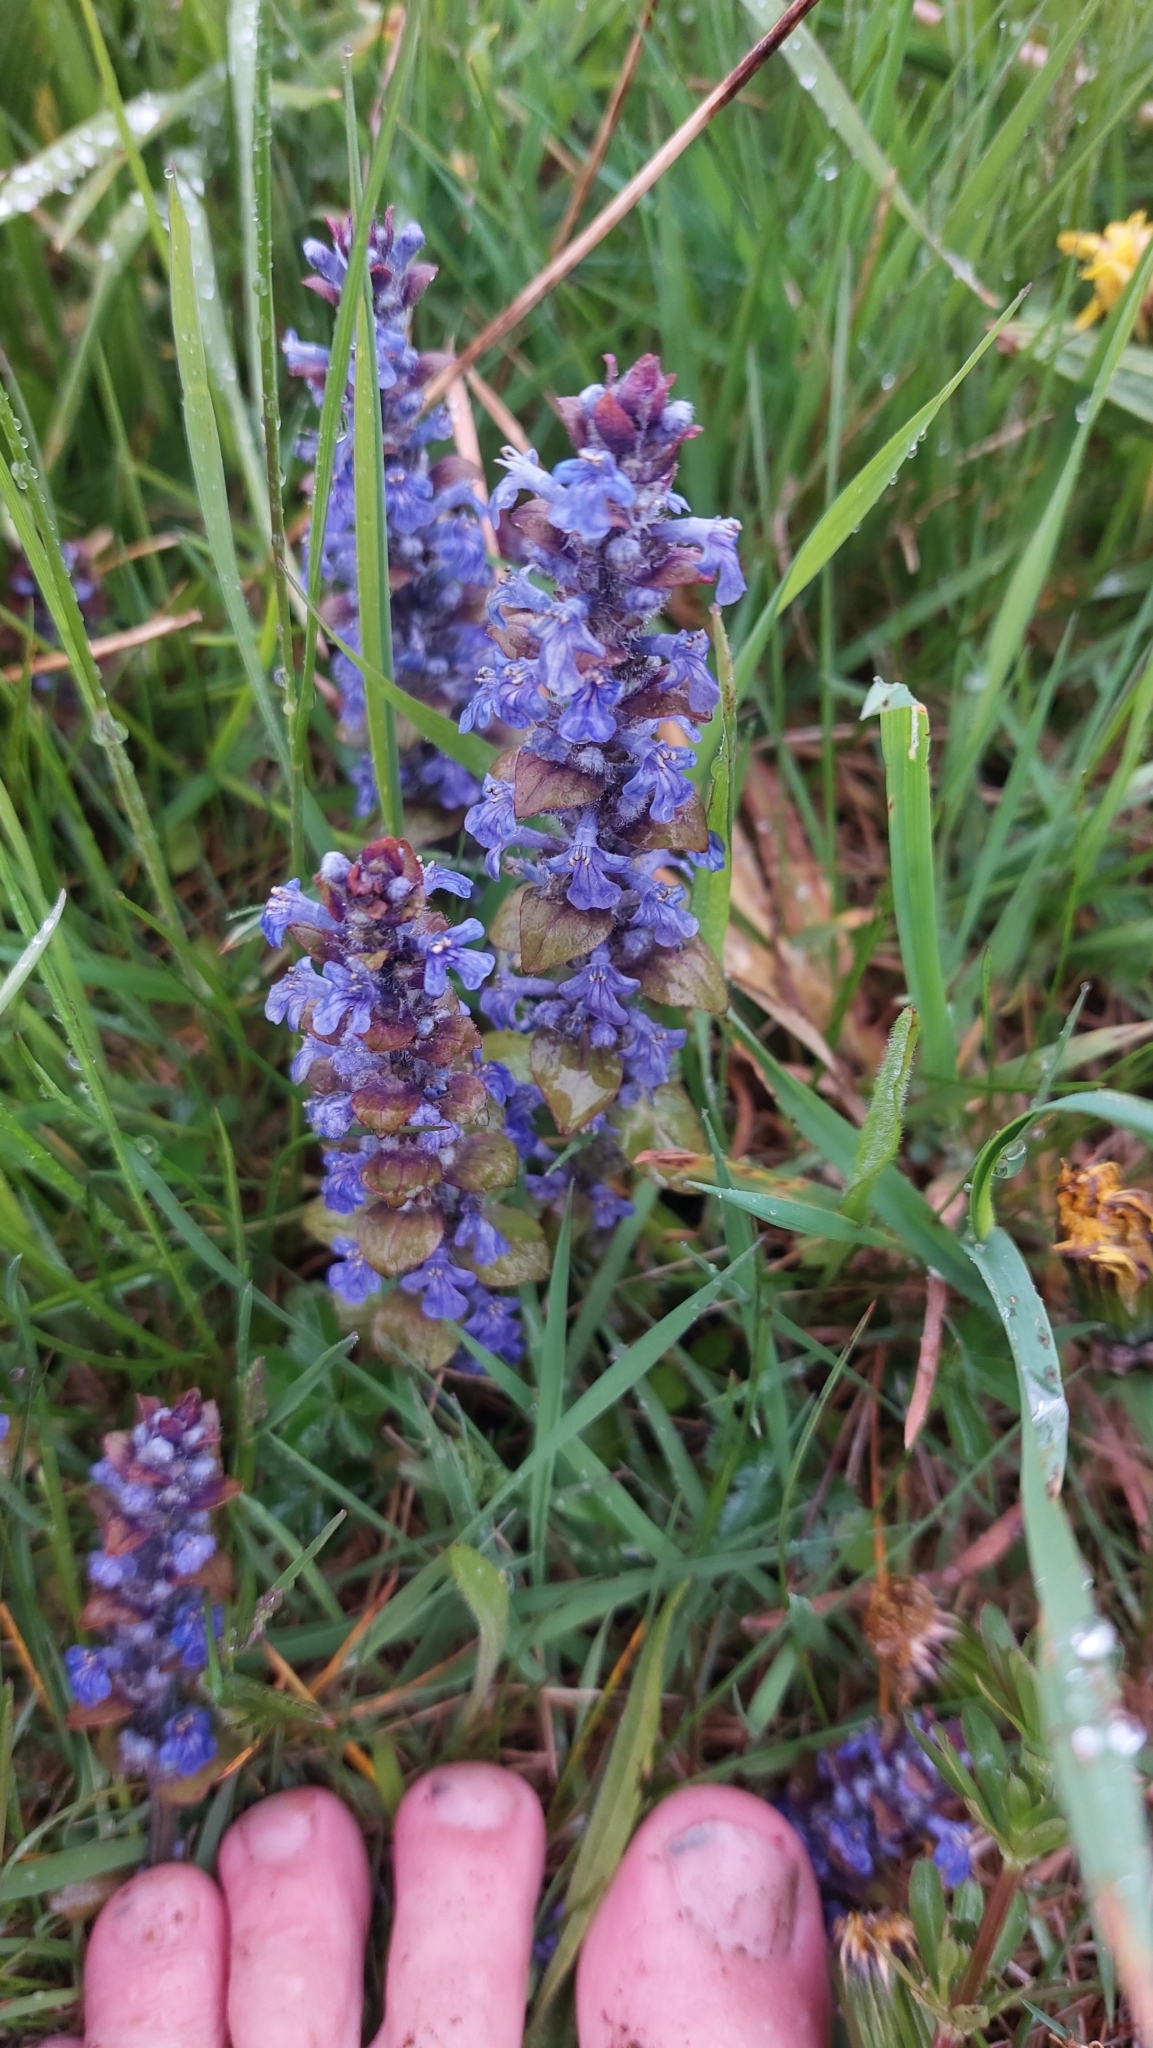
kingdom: Plantae
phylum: Tracheophyta
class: Magnoliopsida
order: Lamiales
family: Lamiaceae
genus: Ajuga
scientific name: Ajuga reptans
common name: Bugle
